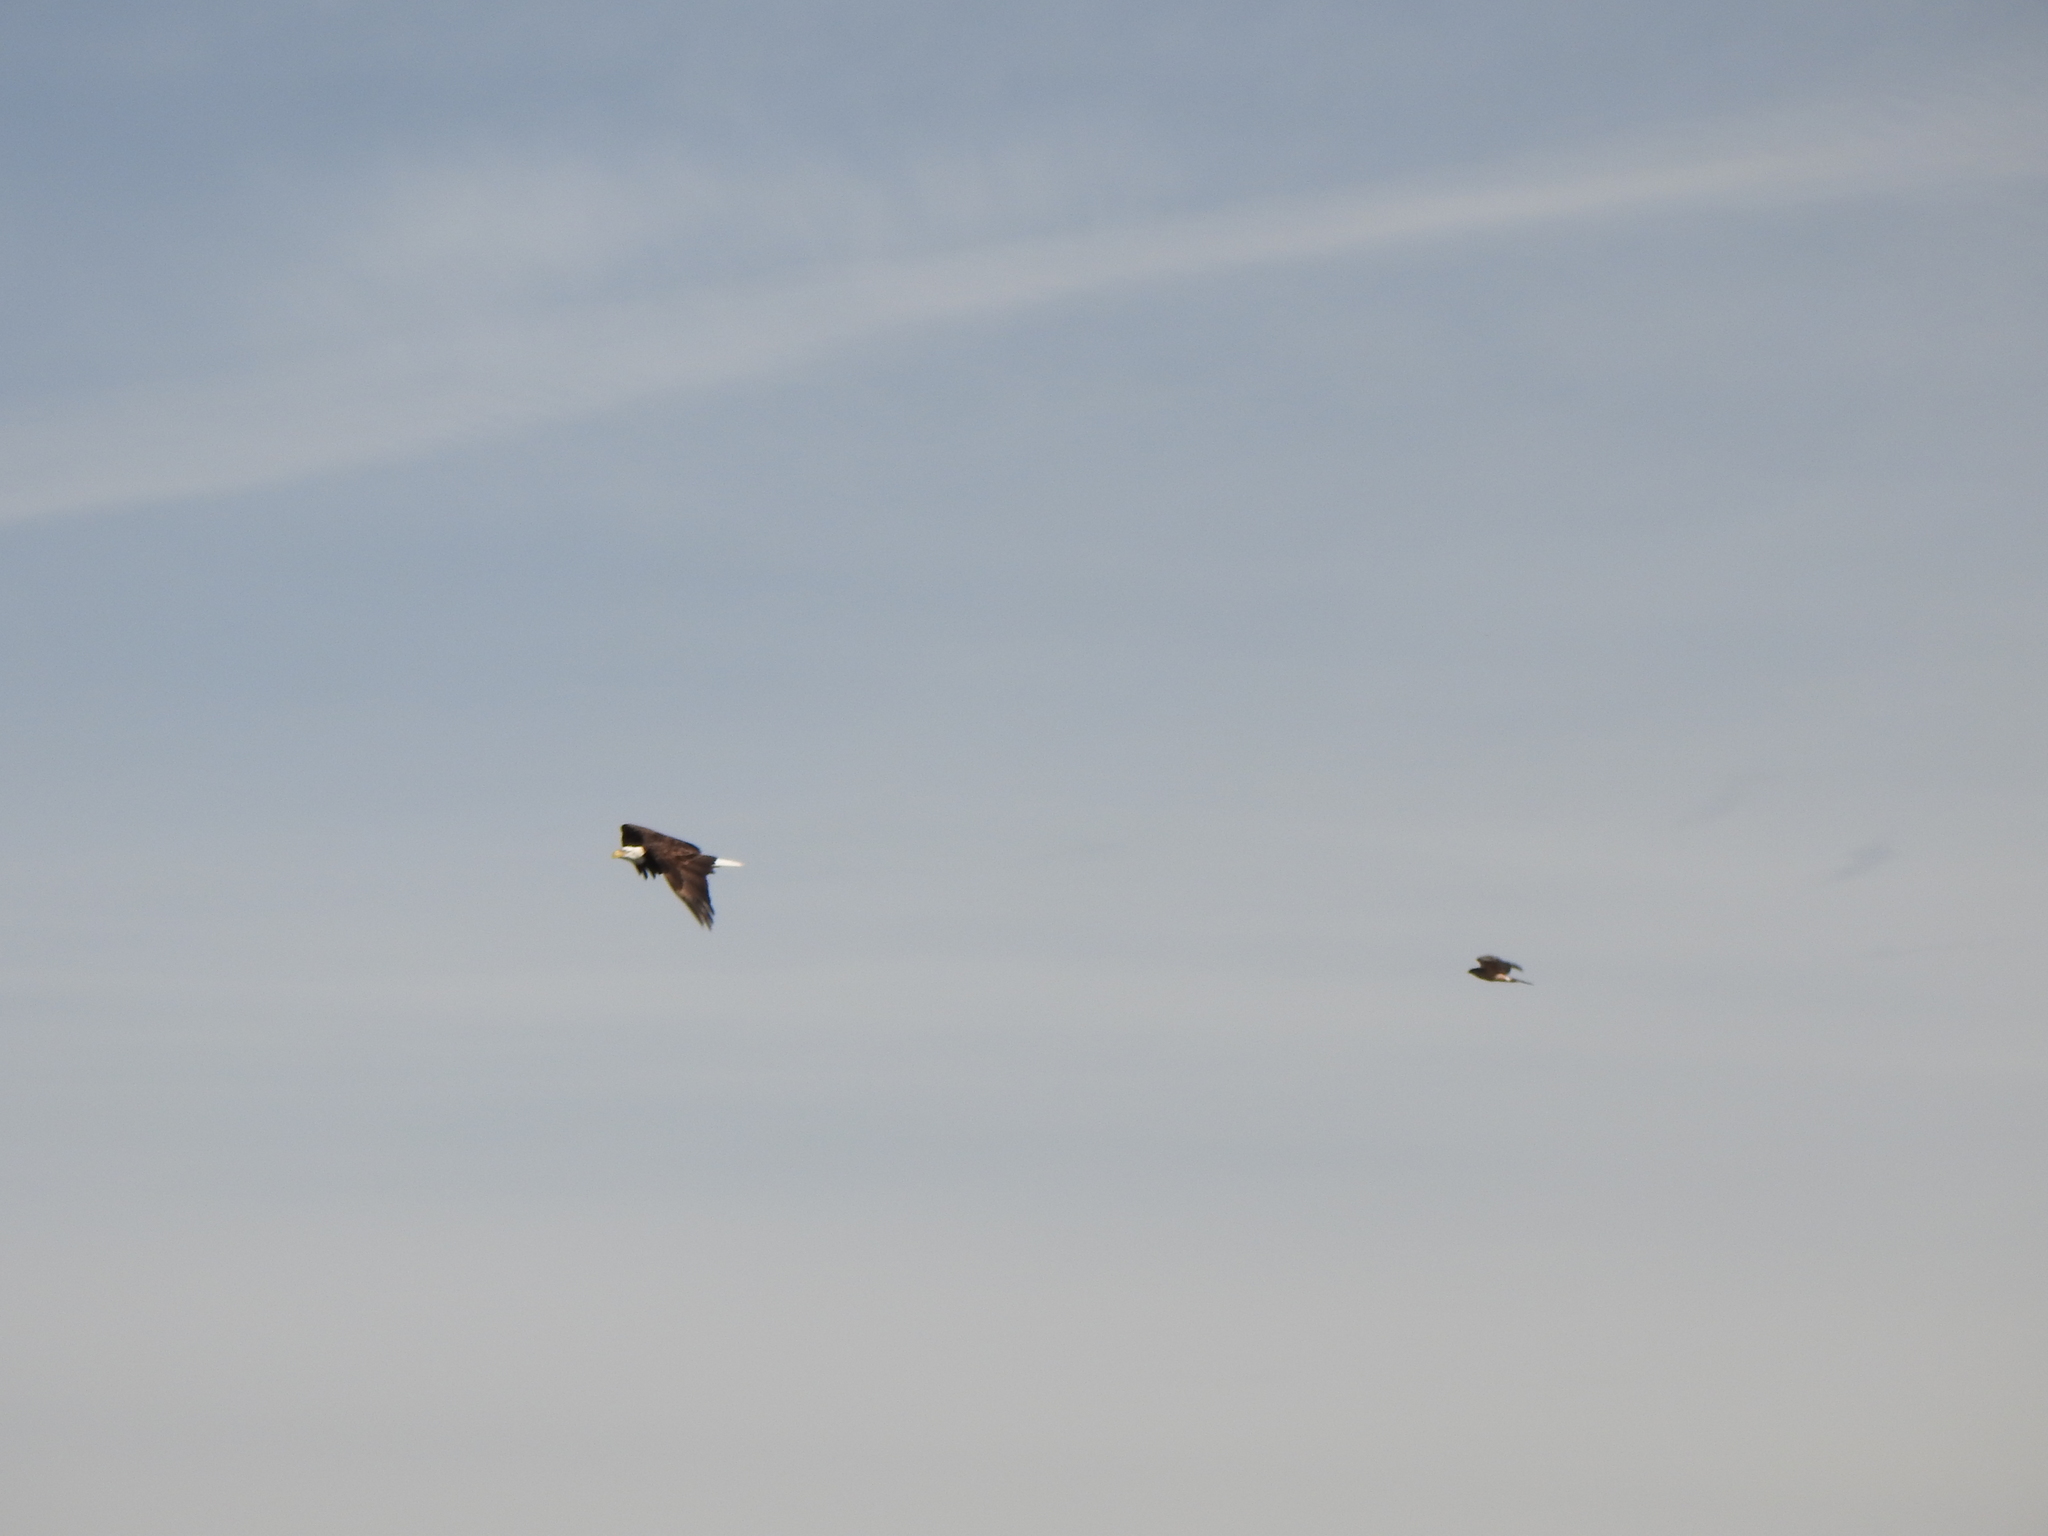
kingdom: Animalia
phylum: Chordata
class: Aves
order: Accipitriformes
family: Accipitridae
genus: Accipiter
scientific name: Accipiter cooperii
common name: Cooper's hawk
